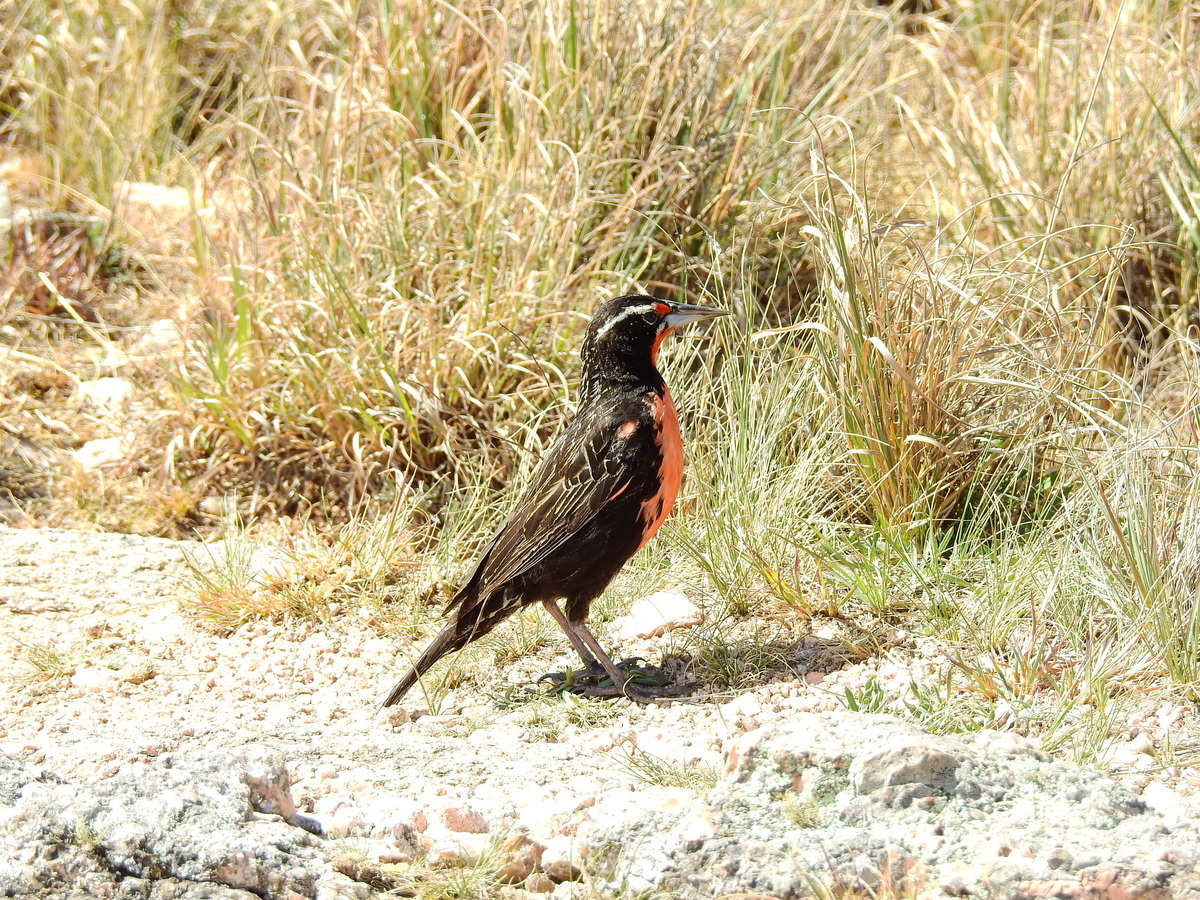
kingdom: Animalia
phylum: Chordata
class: Aves
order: Passeriformes
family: Icteridae
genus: Sturnella
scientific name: Sturnella loyca
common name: Long-tailed meadowlark
